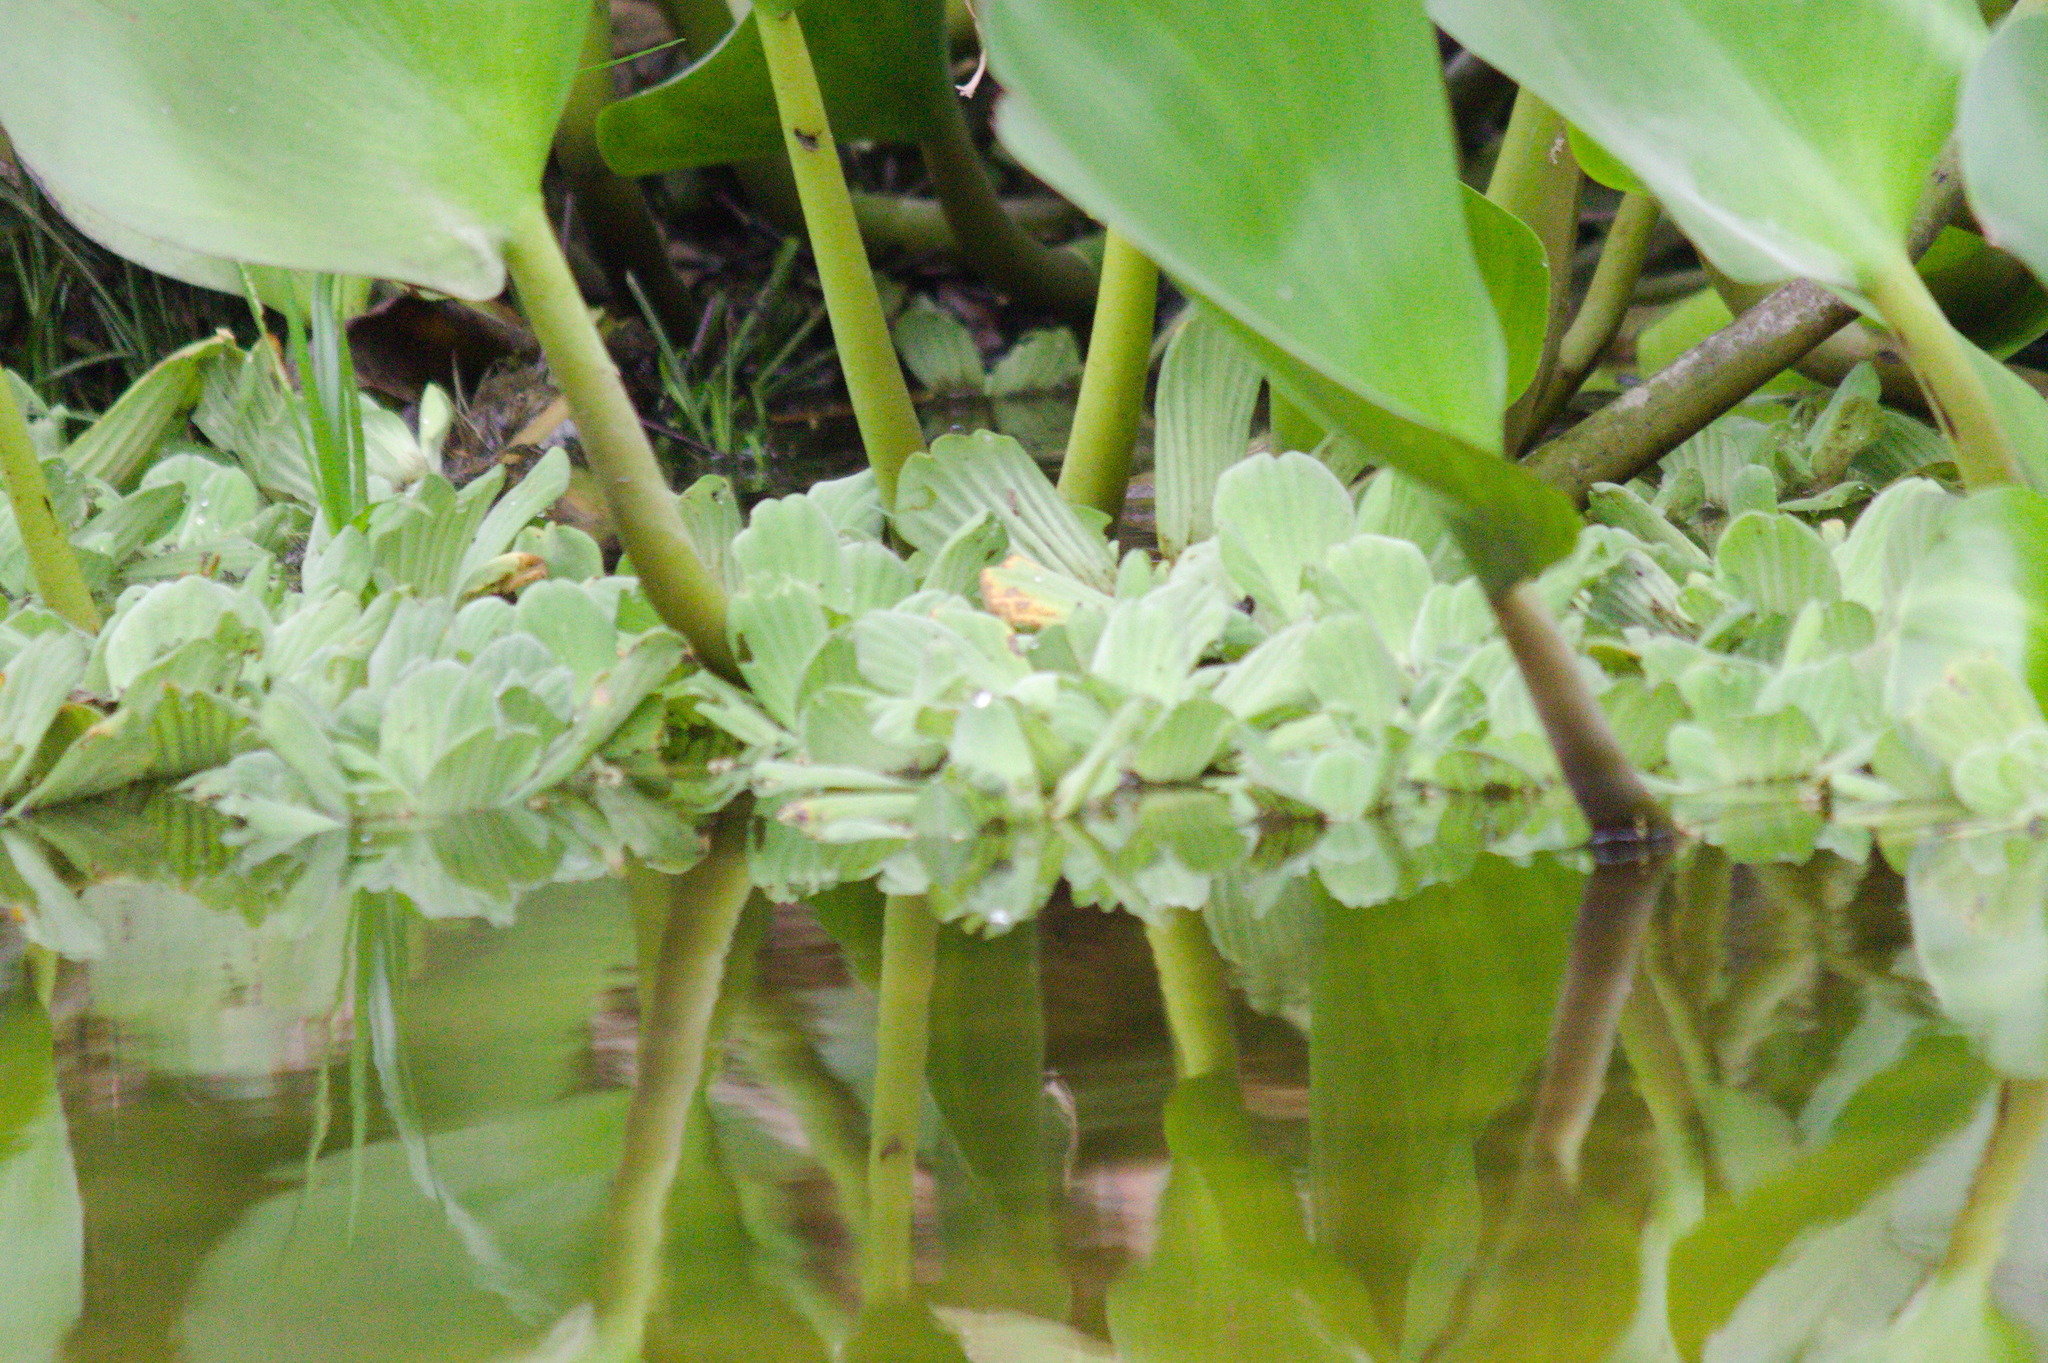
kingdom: Plantae
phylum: Tracheophyta
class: Liliopsida
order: Alismatales
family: Araceae
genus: Pistia
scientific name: Pistia stratiotes
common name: Water lettuce
